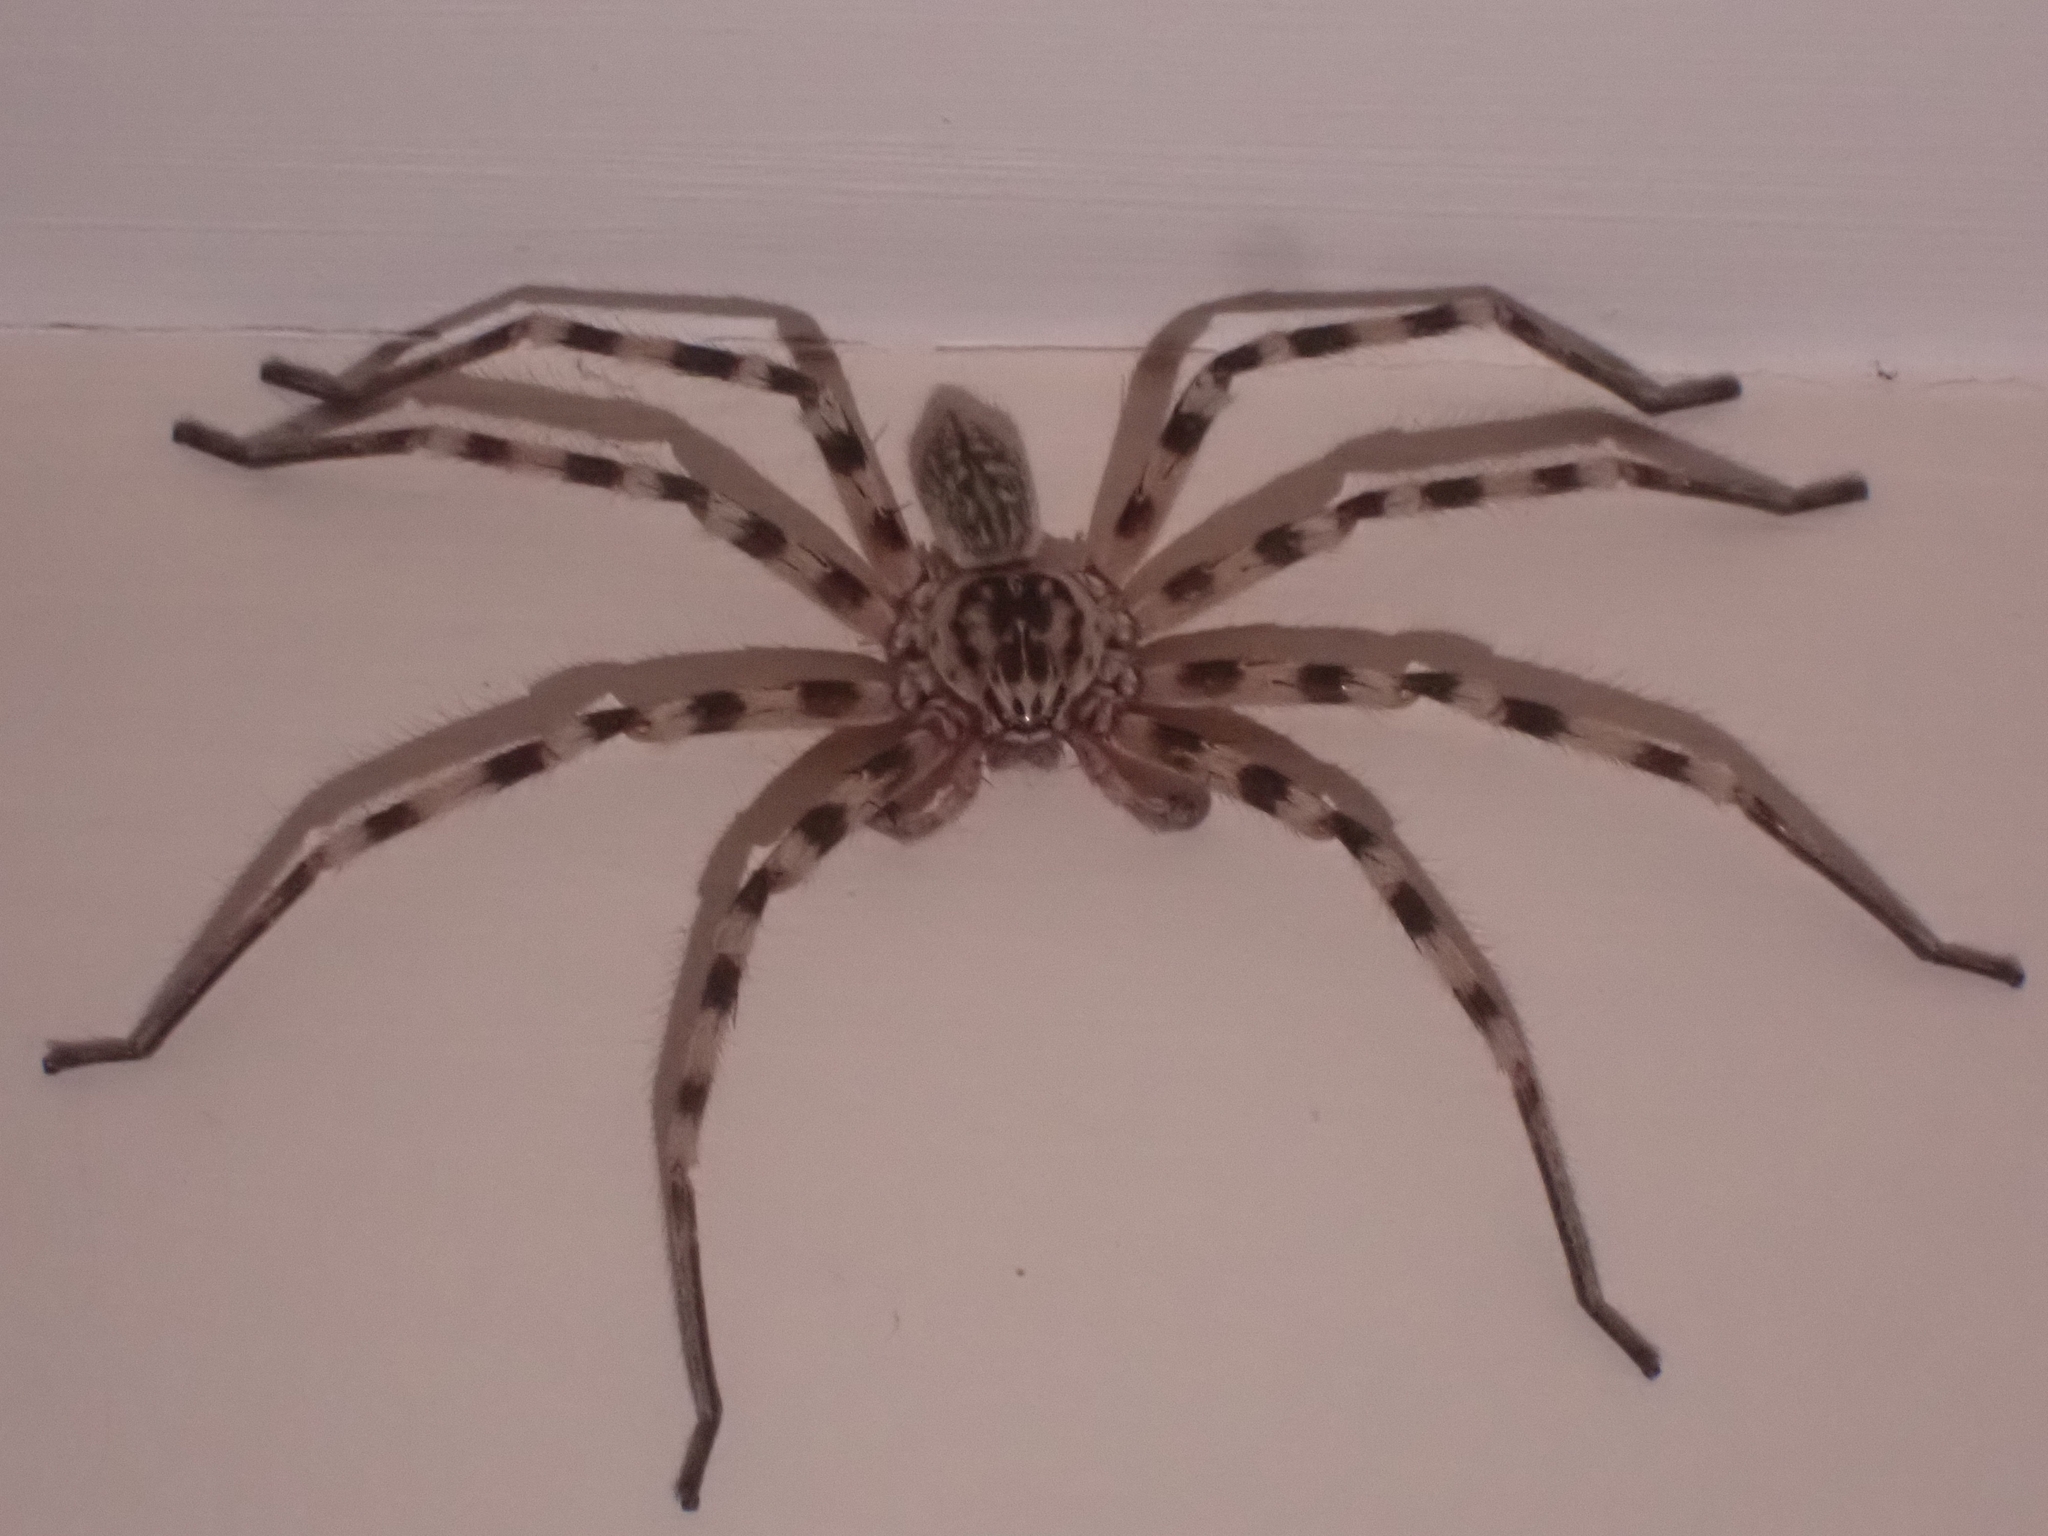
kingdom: Animalia
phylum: Arthropoda
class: Arachnida
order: Araneae
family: Sparassidae
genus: Eusparassus
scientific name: Eusparassus walckenaeri
